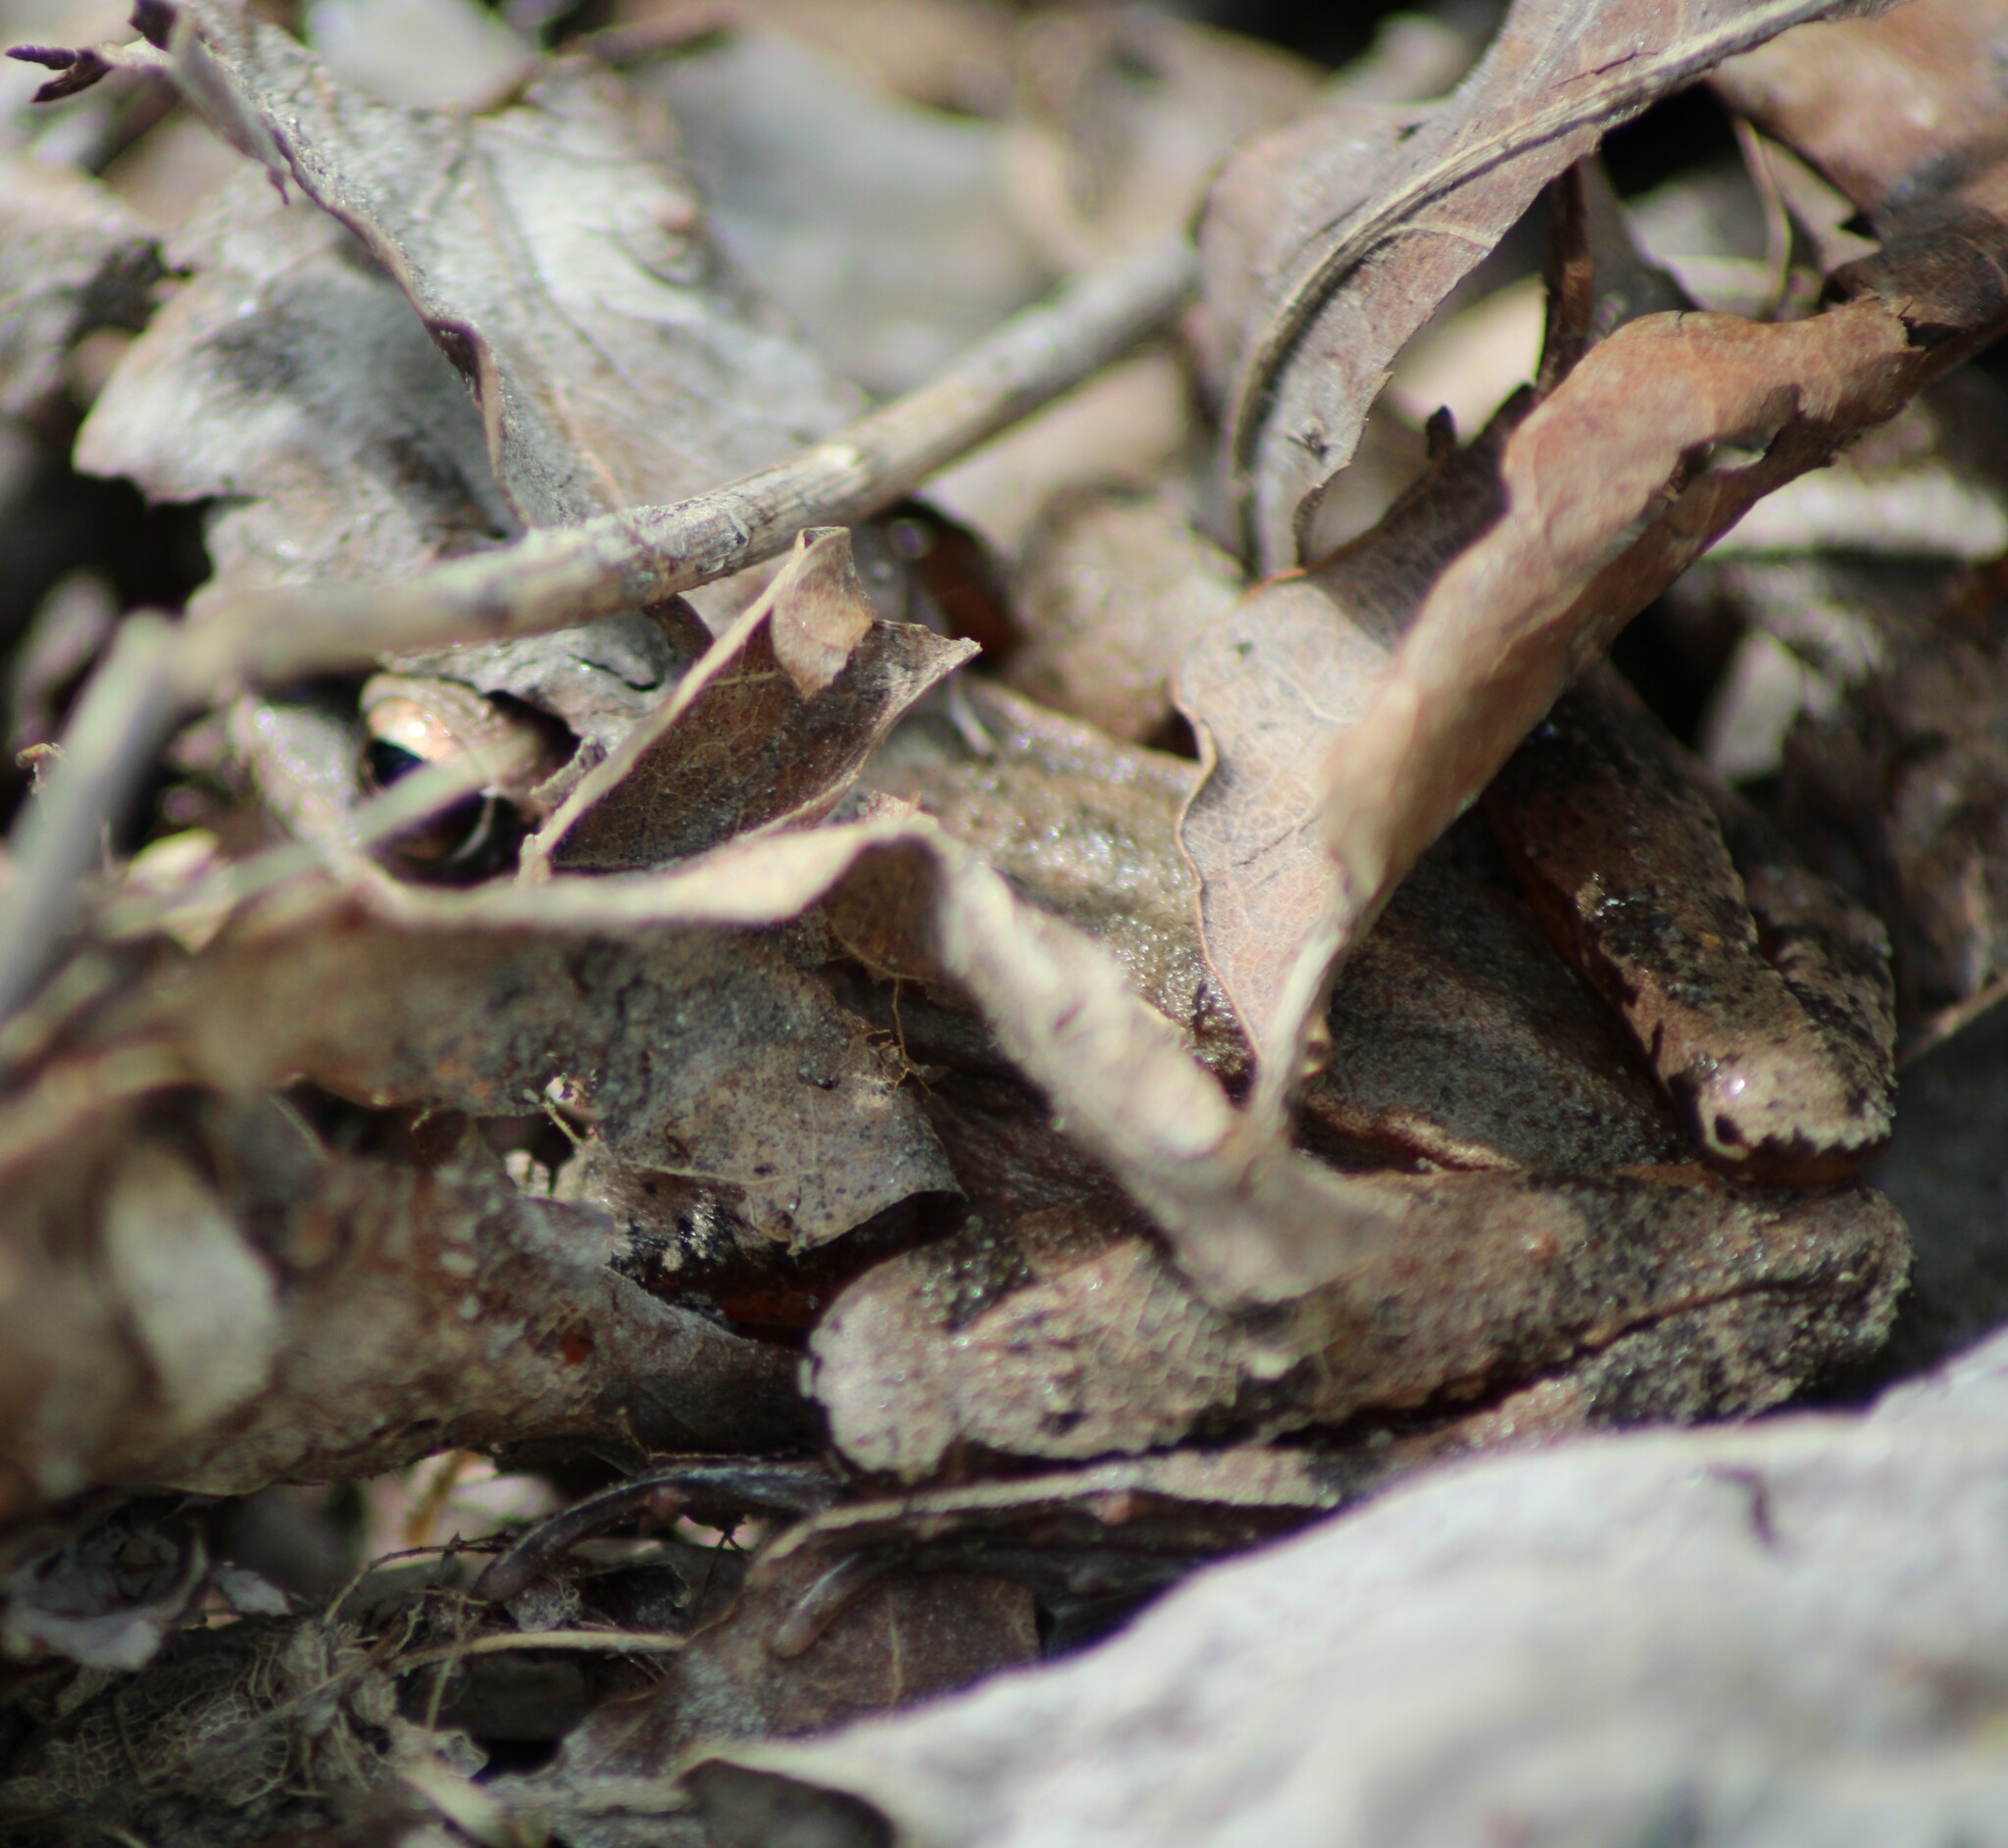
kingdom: Animalia
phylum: Chordata
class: Amphibia
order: Anura
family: Ranidae
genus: Rana
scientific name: Rana dalmatina
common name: Agile frog
